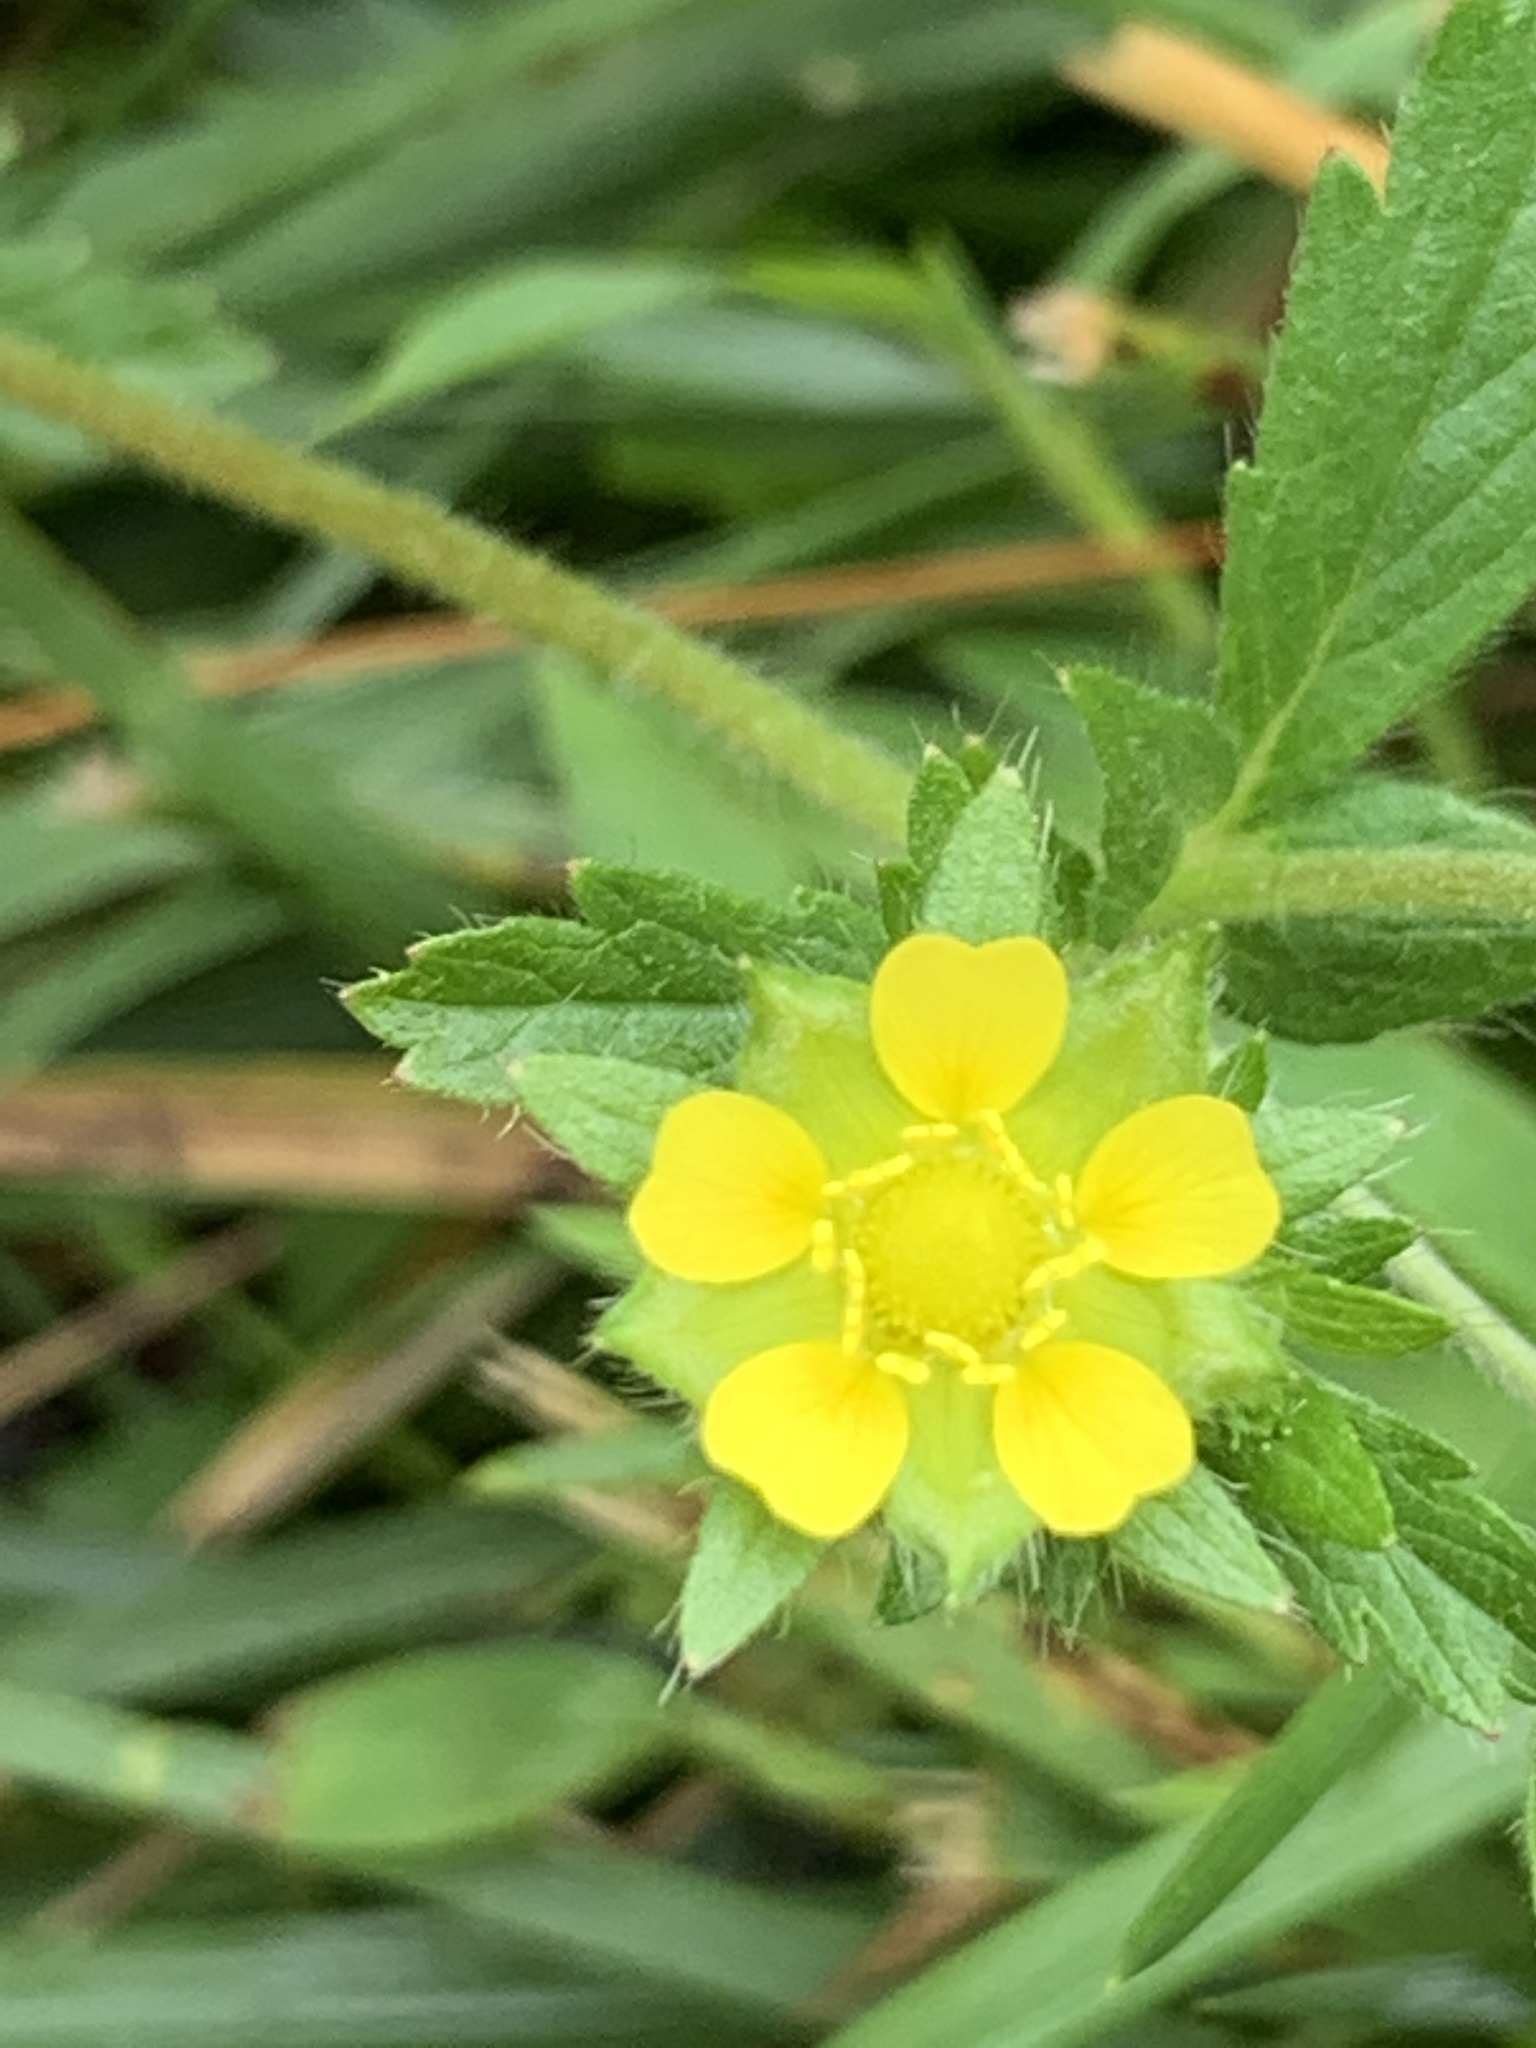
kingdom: Plantae
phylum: Tracheophyta
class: Magnoliopsida
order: Rosales
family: Rosaceae
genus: Potentilla
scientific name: Potentilla norvegica
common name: Ternate-leaved cinquefoil
